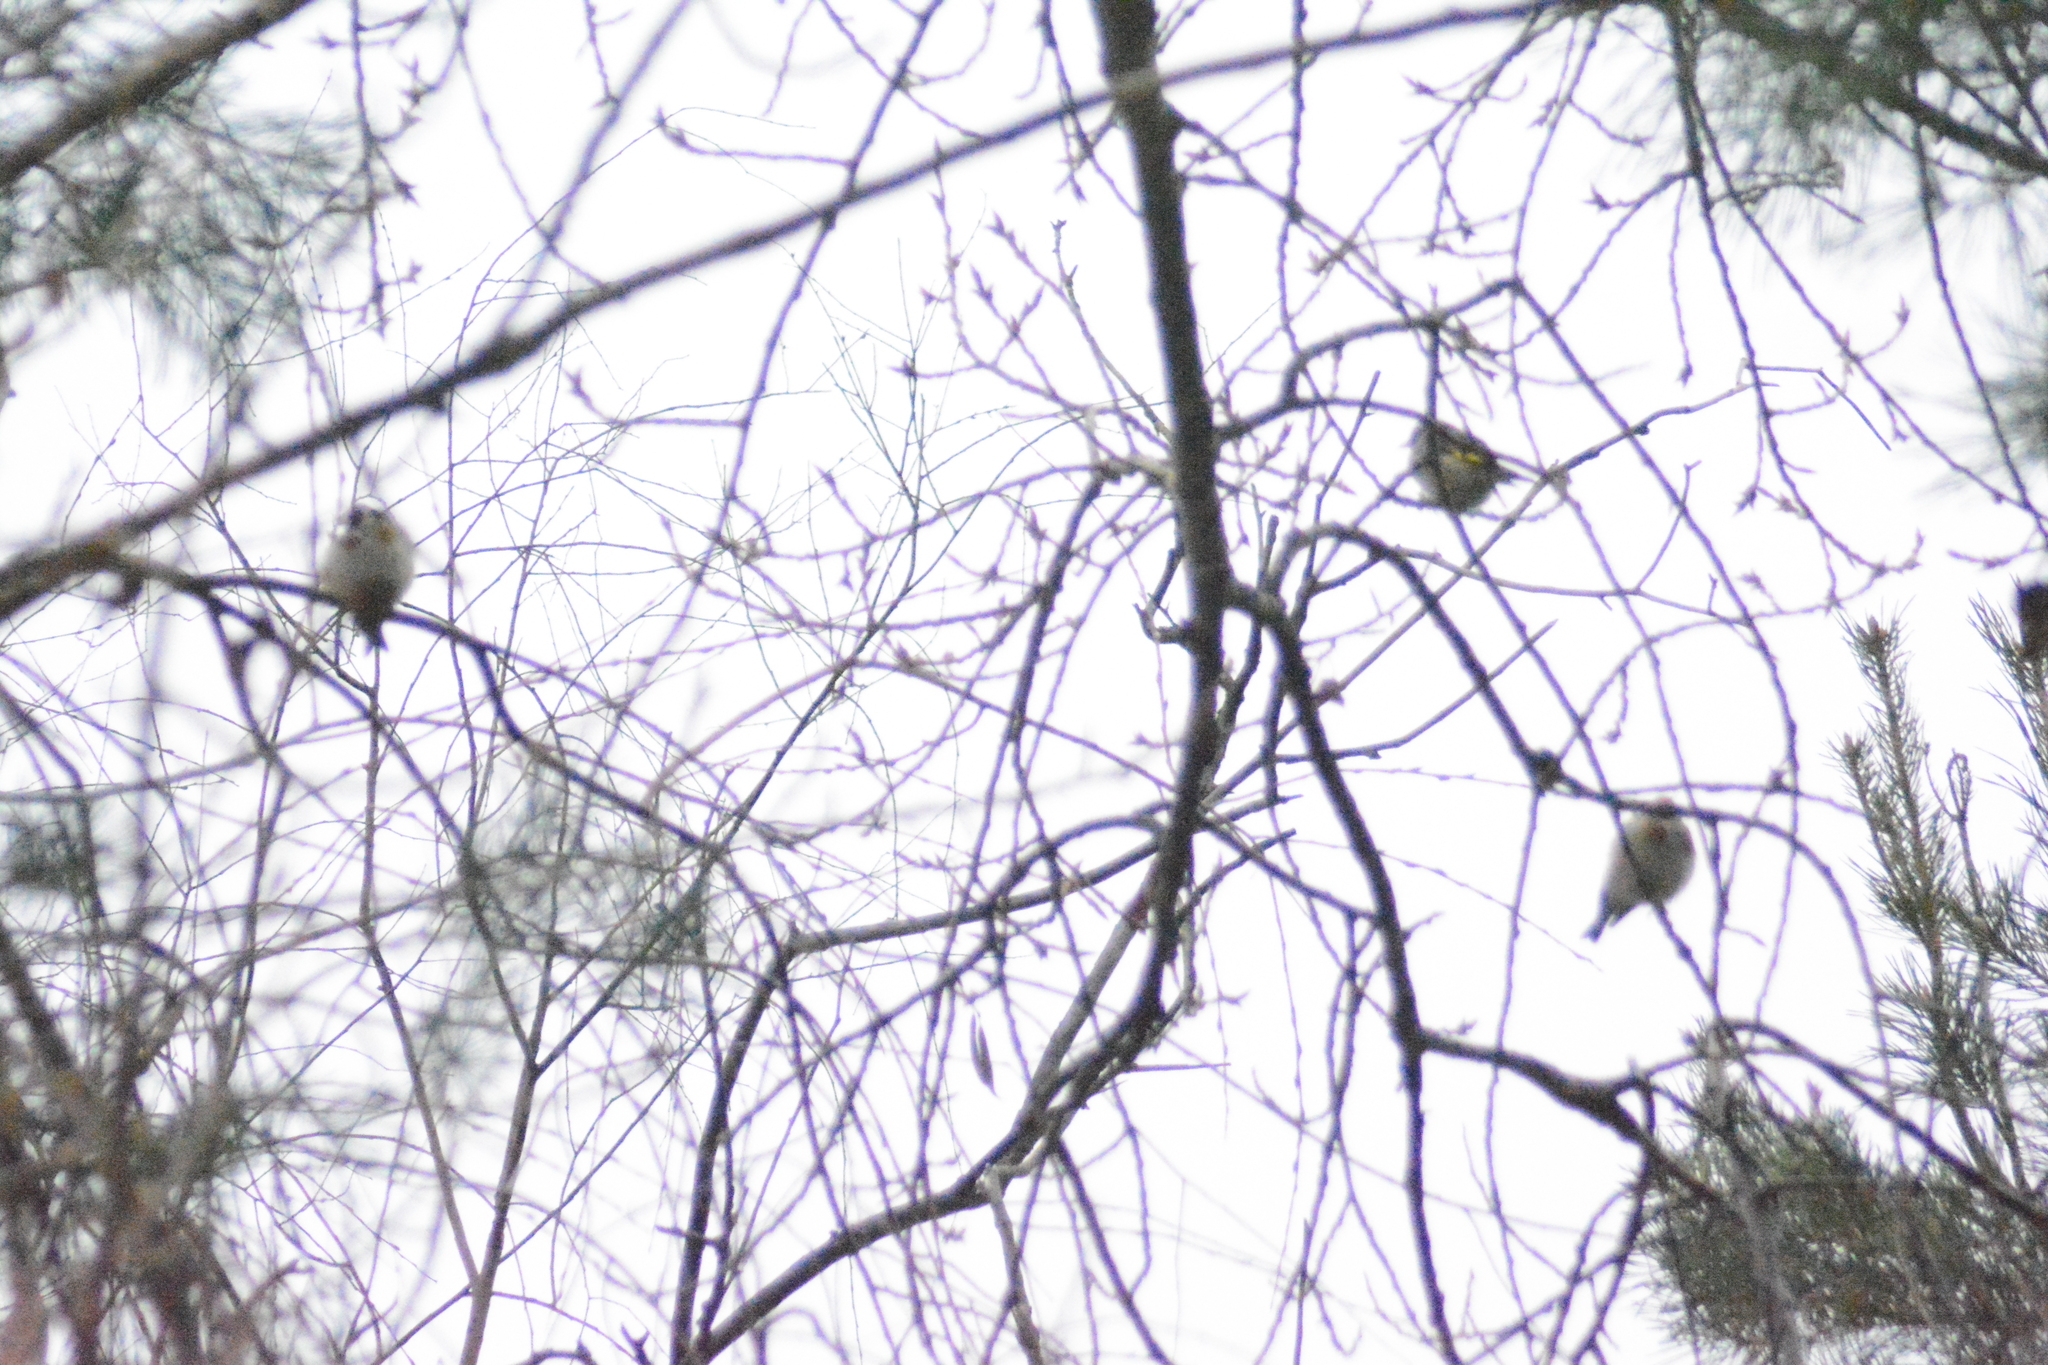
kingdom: Animalia
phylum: Chordata
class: Aves
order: Passeriformes
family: Fringillidae
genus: Carduelis
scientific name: Carduelis carduelis
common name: European goldfinch
